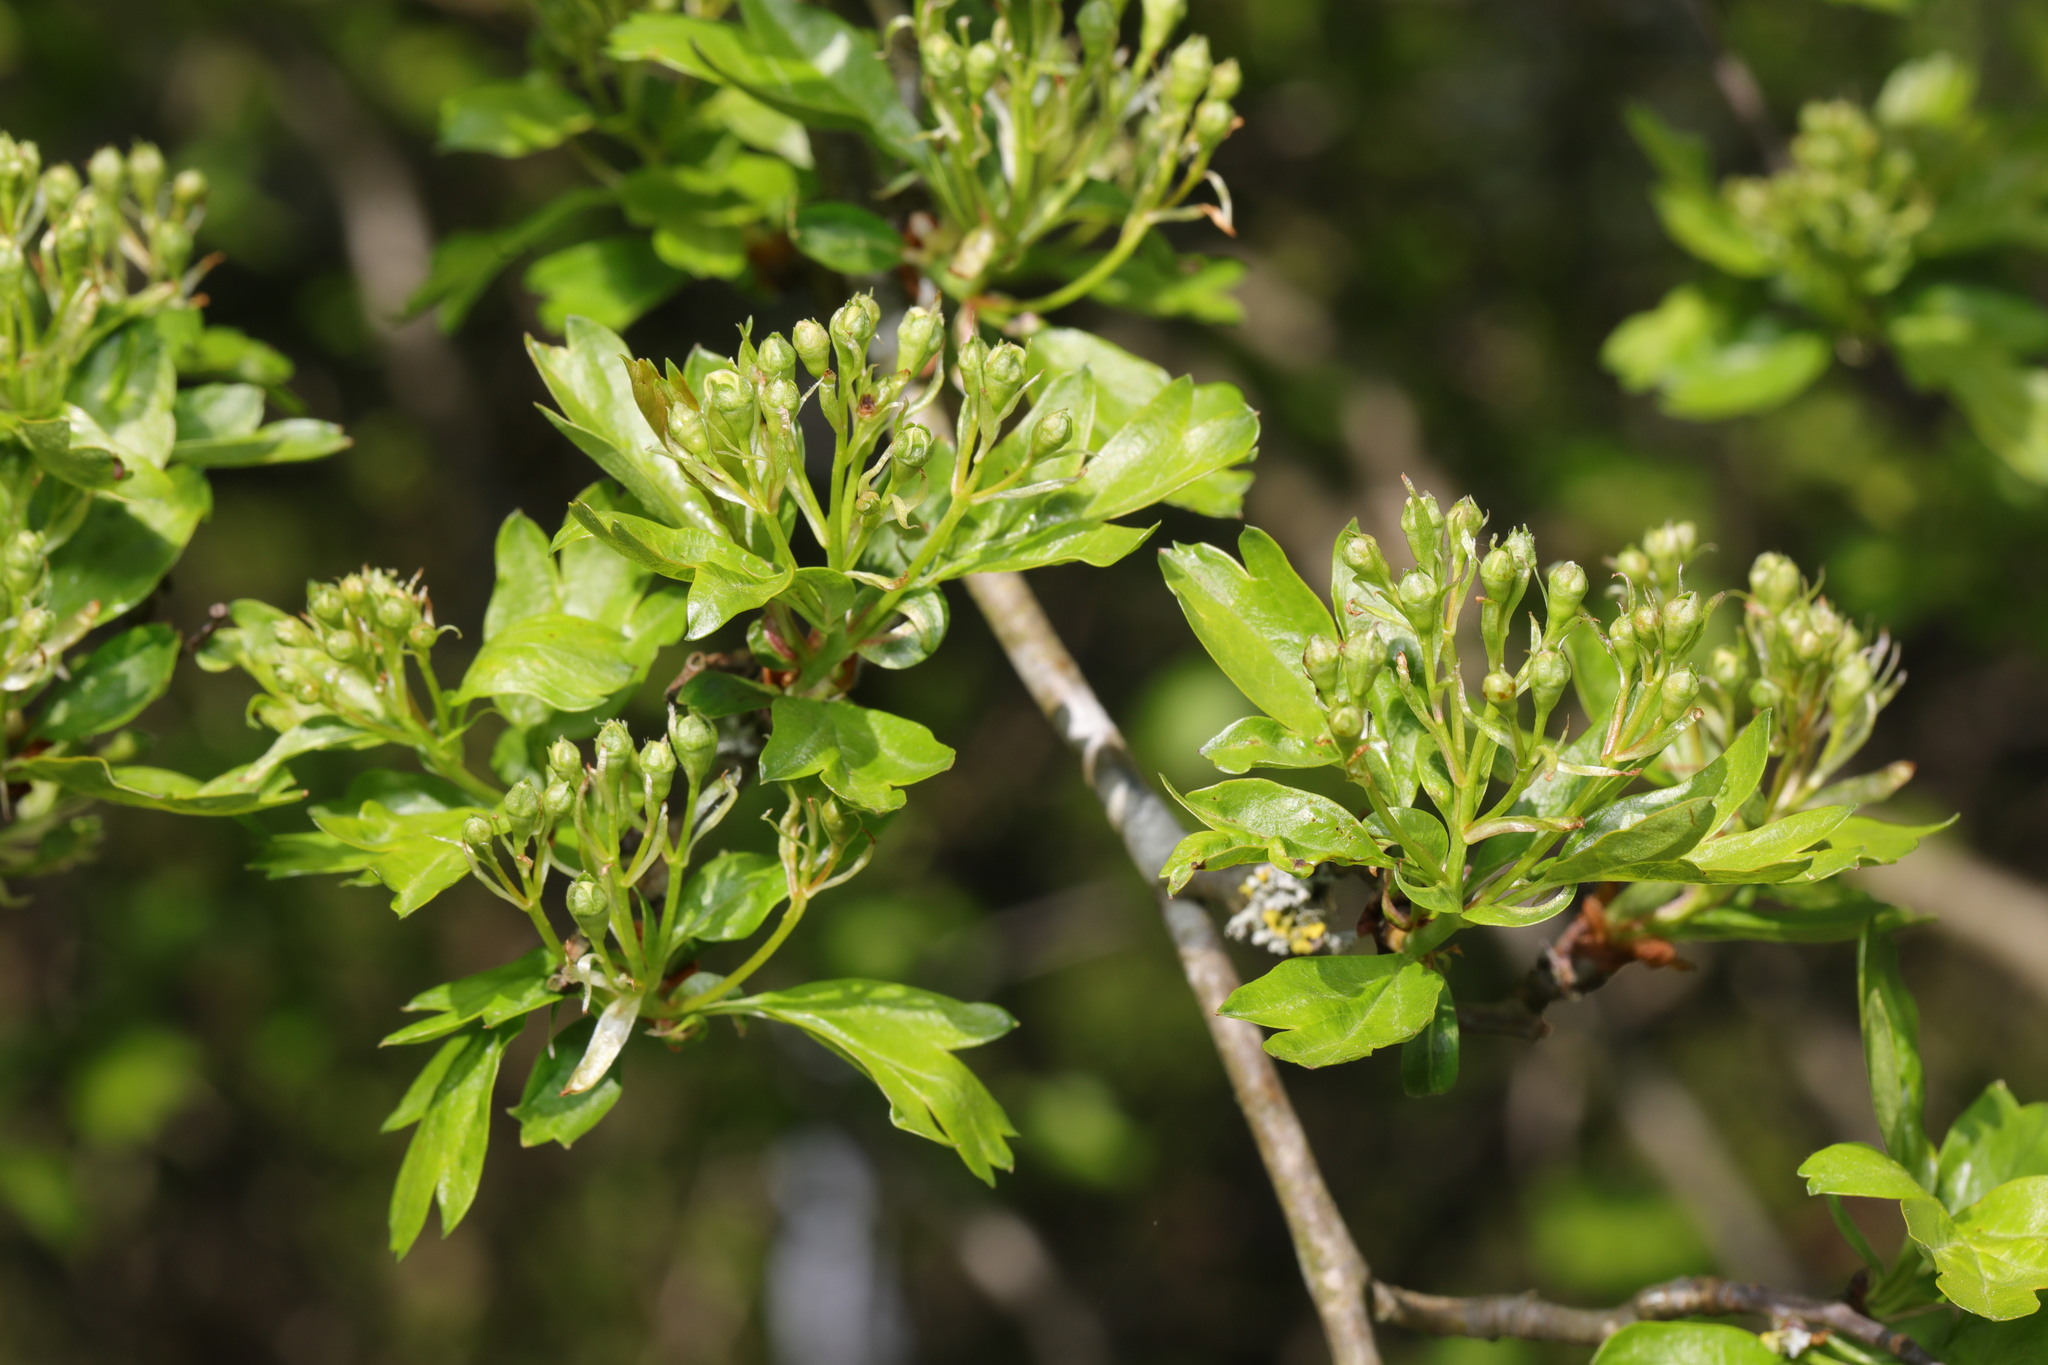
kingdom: Plantae
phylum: Tracheophyta
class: Magnoliopsida
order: Rosales
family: Rosaceae
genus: Crataegus
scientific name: Crataegus monogyna
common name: Hawthorn
